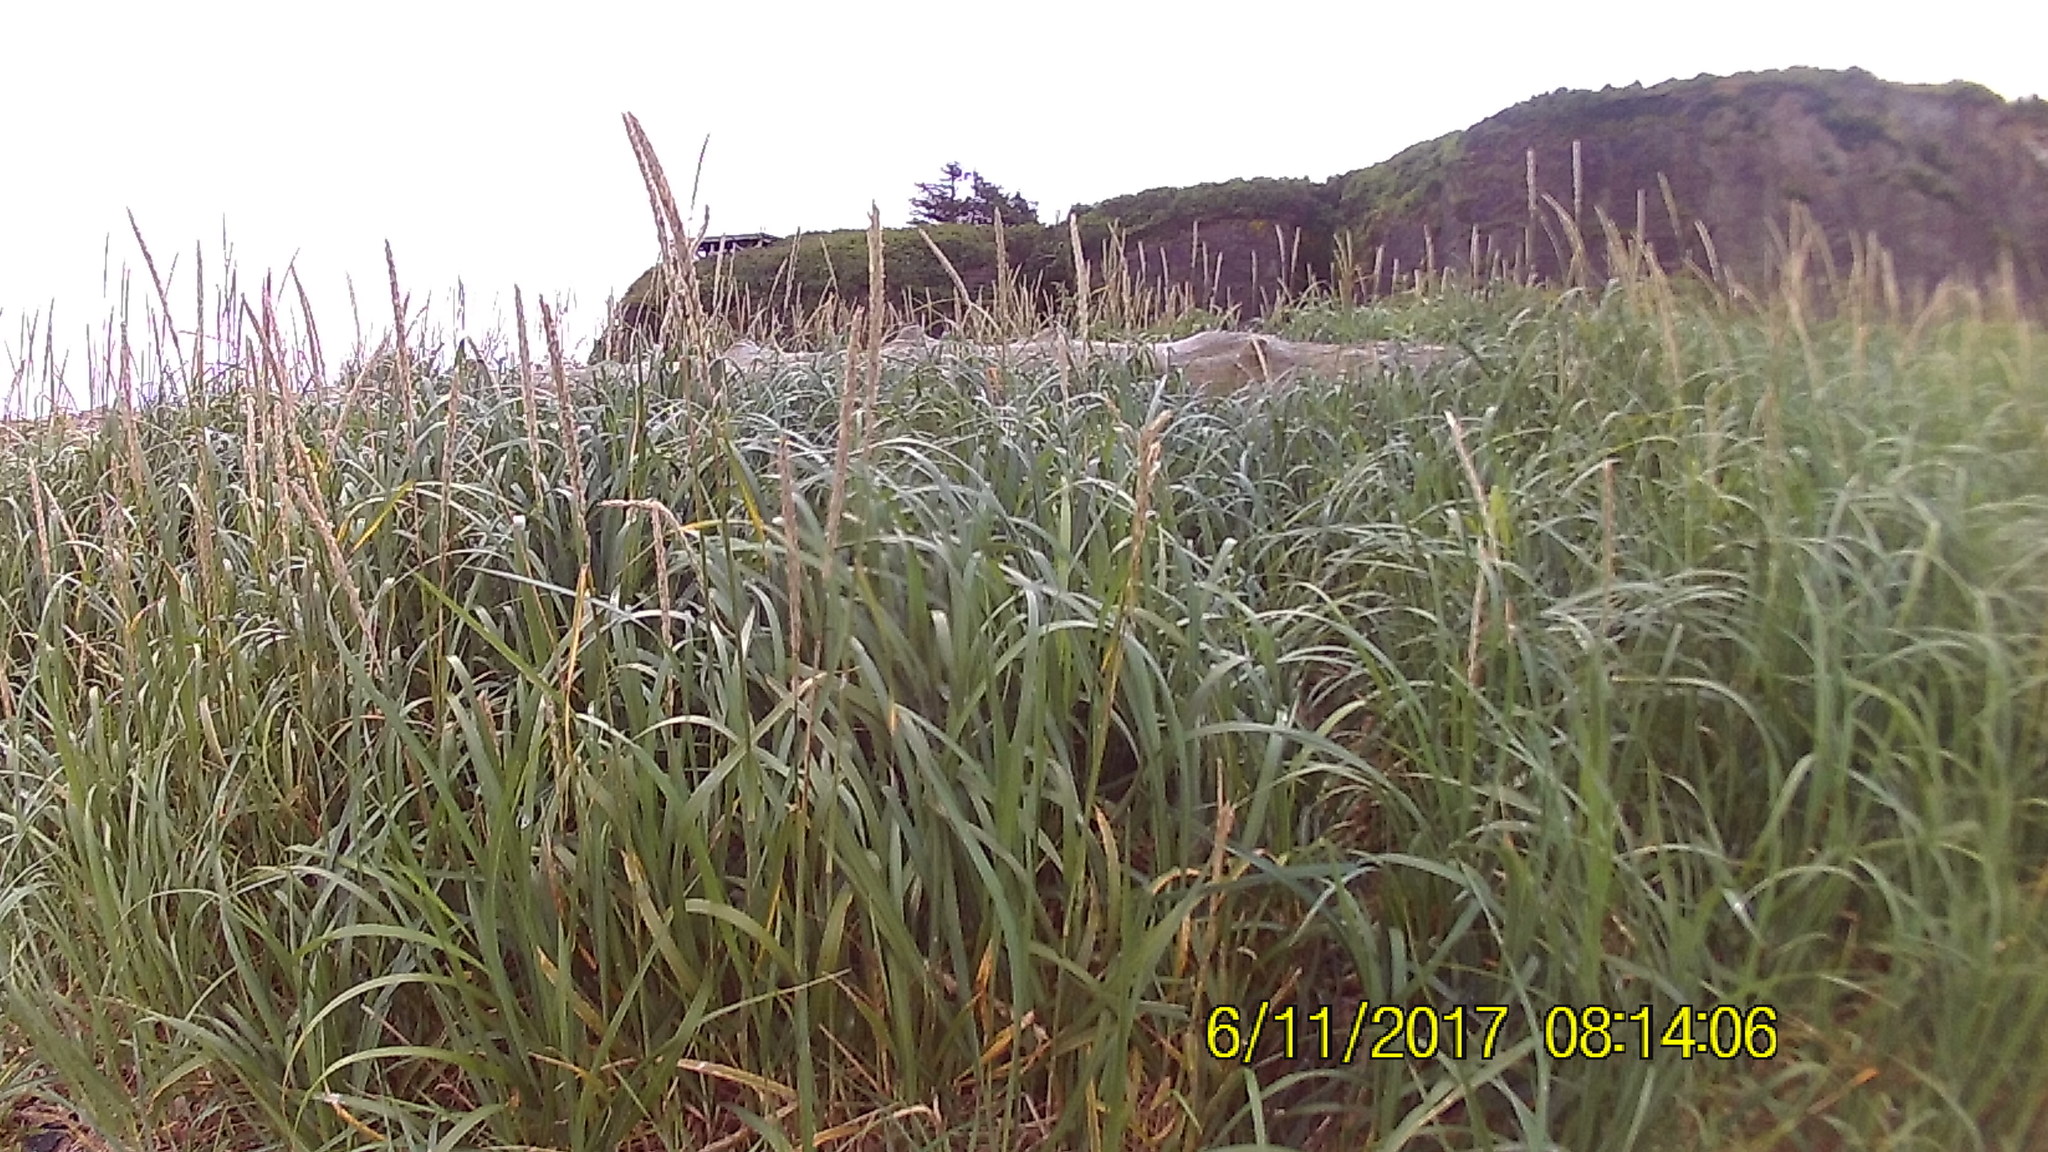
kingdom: Plantae
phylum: Tracheophyta
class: Liliopsida
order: Poales
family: Poaceae
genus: Leymus
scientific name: Leymus mollis
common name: American dune grass
